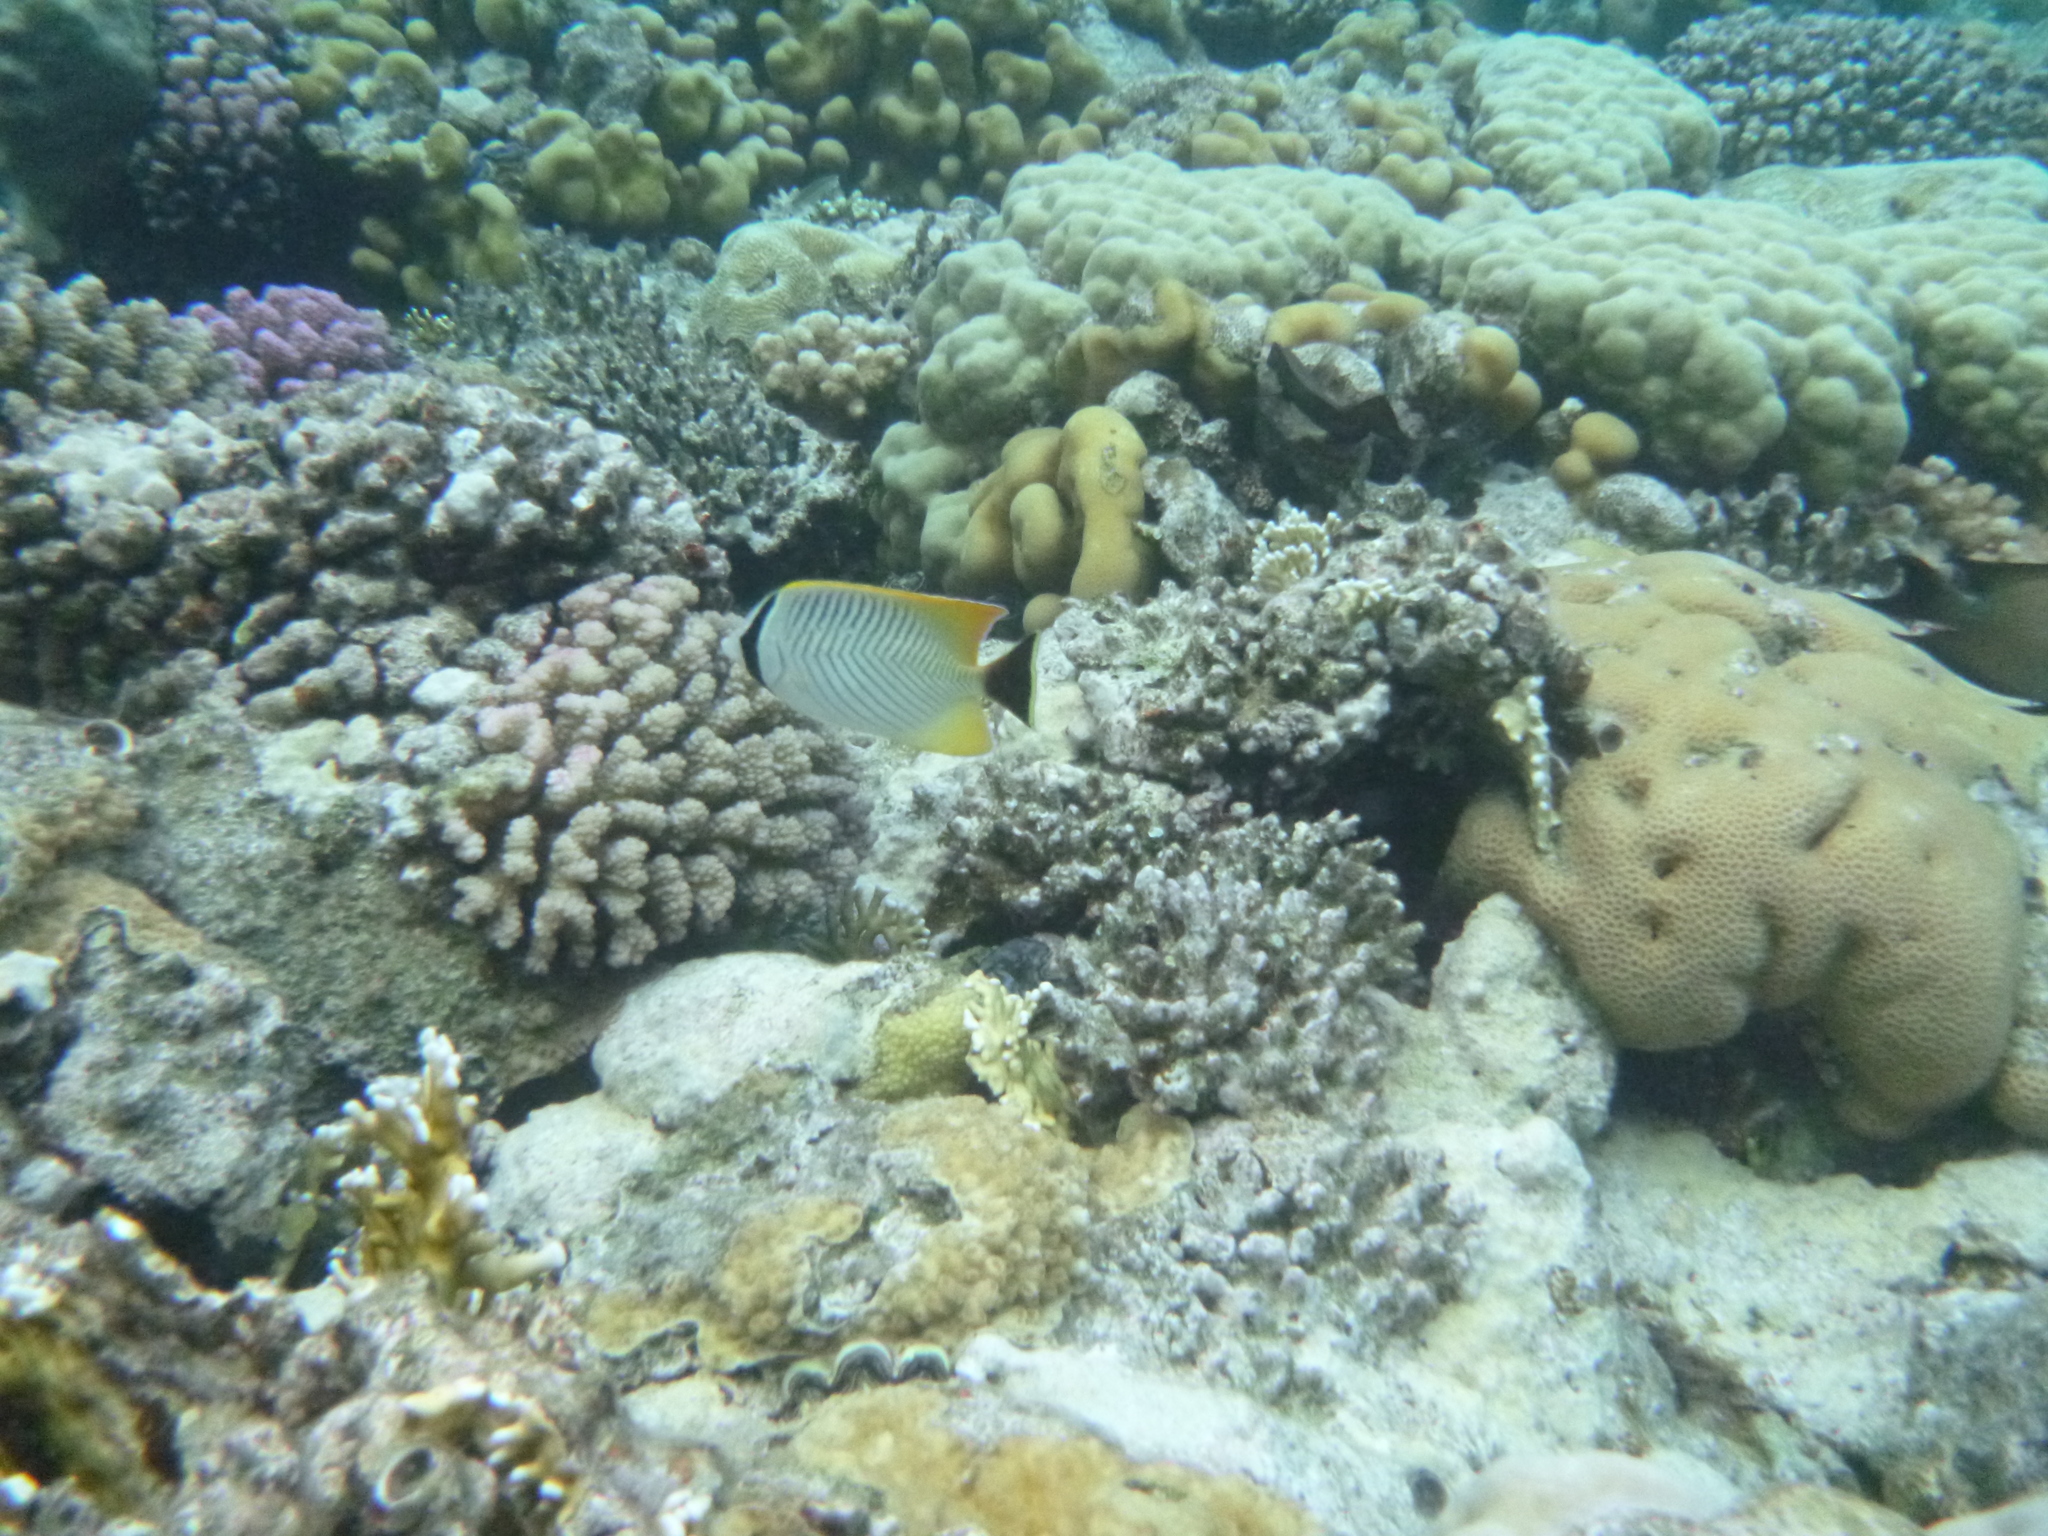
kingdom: Animalia
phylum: Chordata
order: Perciformes
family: Chaetodontidae
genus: Chaetodon
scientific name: Chaetodon trifascialis
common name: Chevroned butterflyfish
